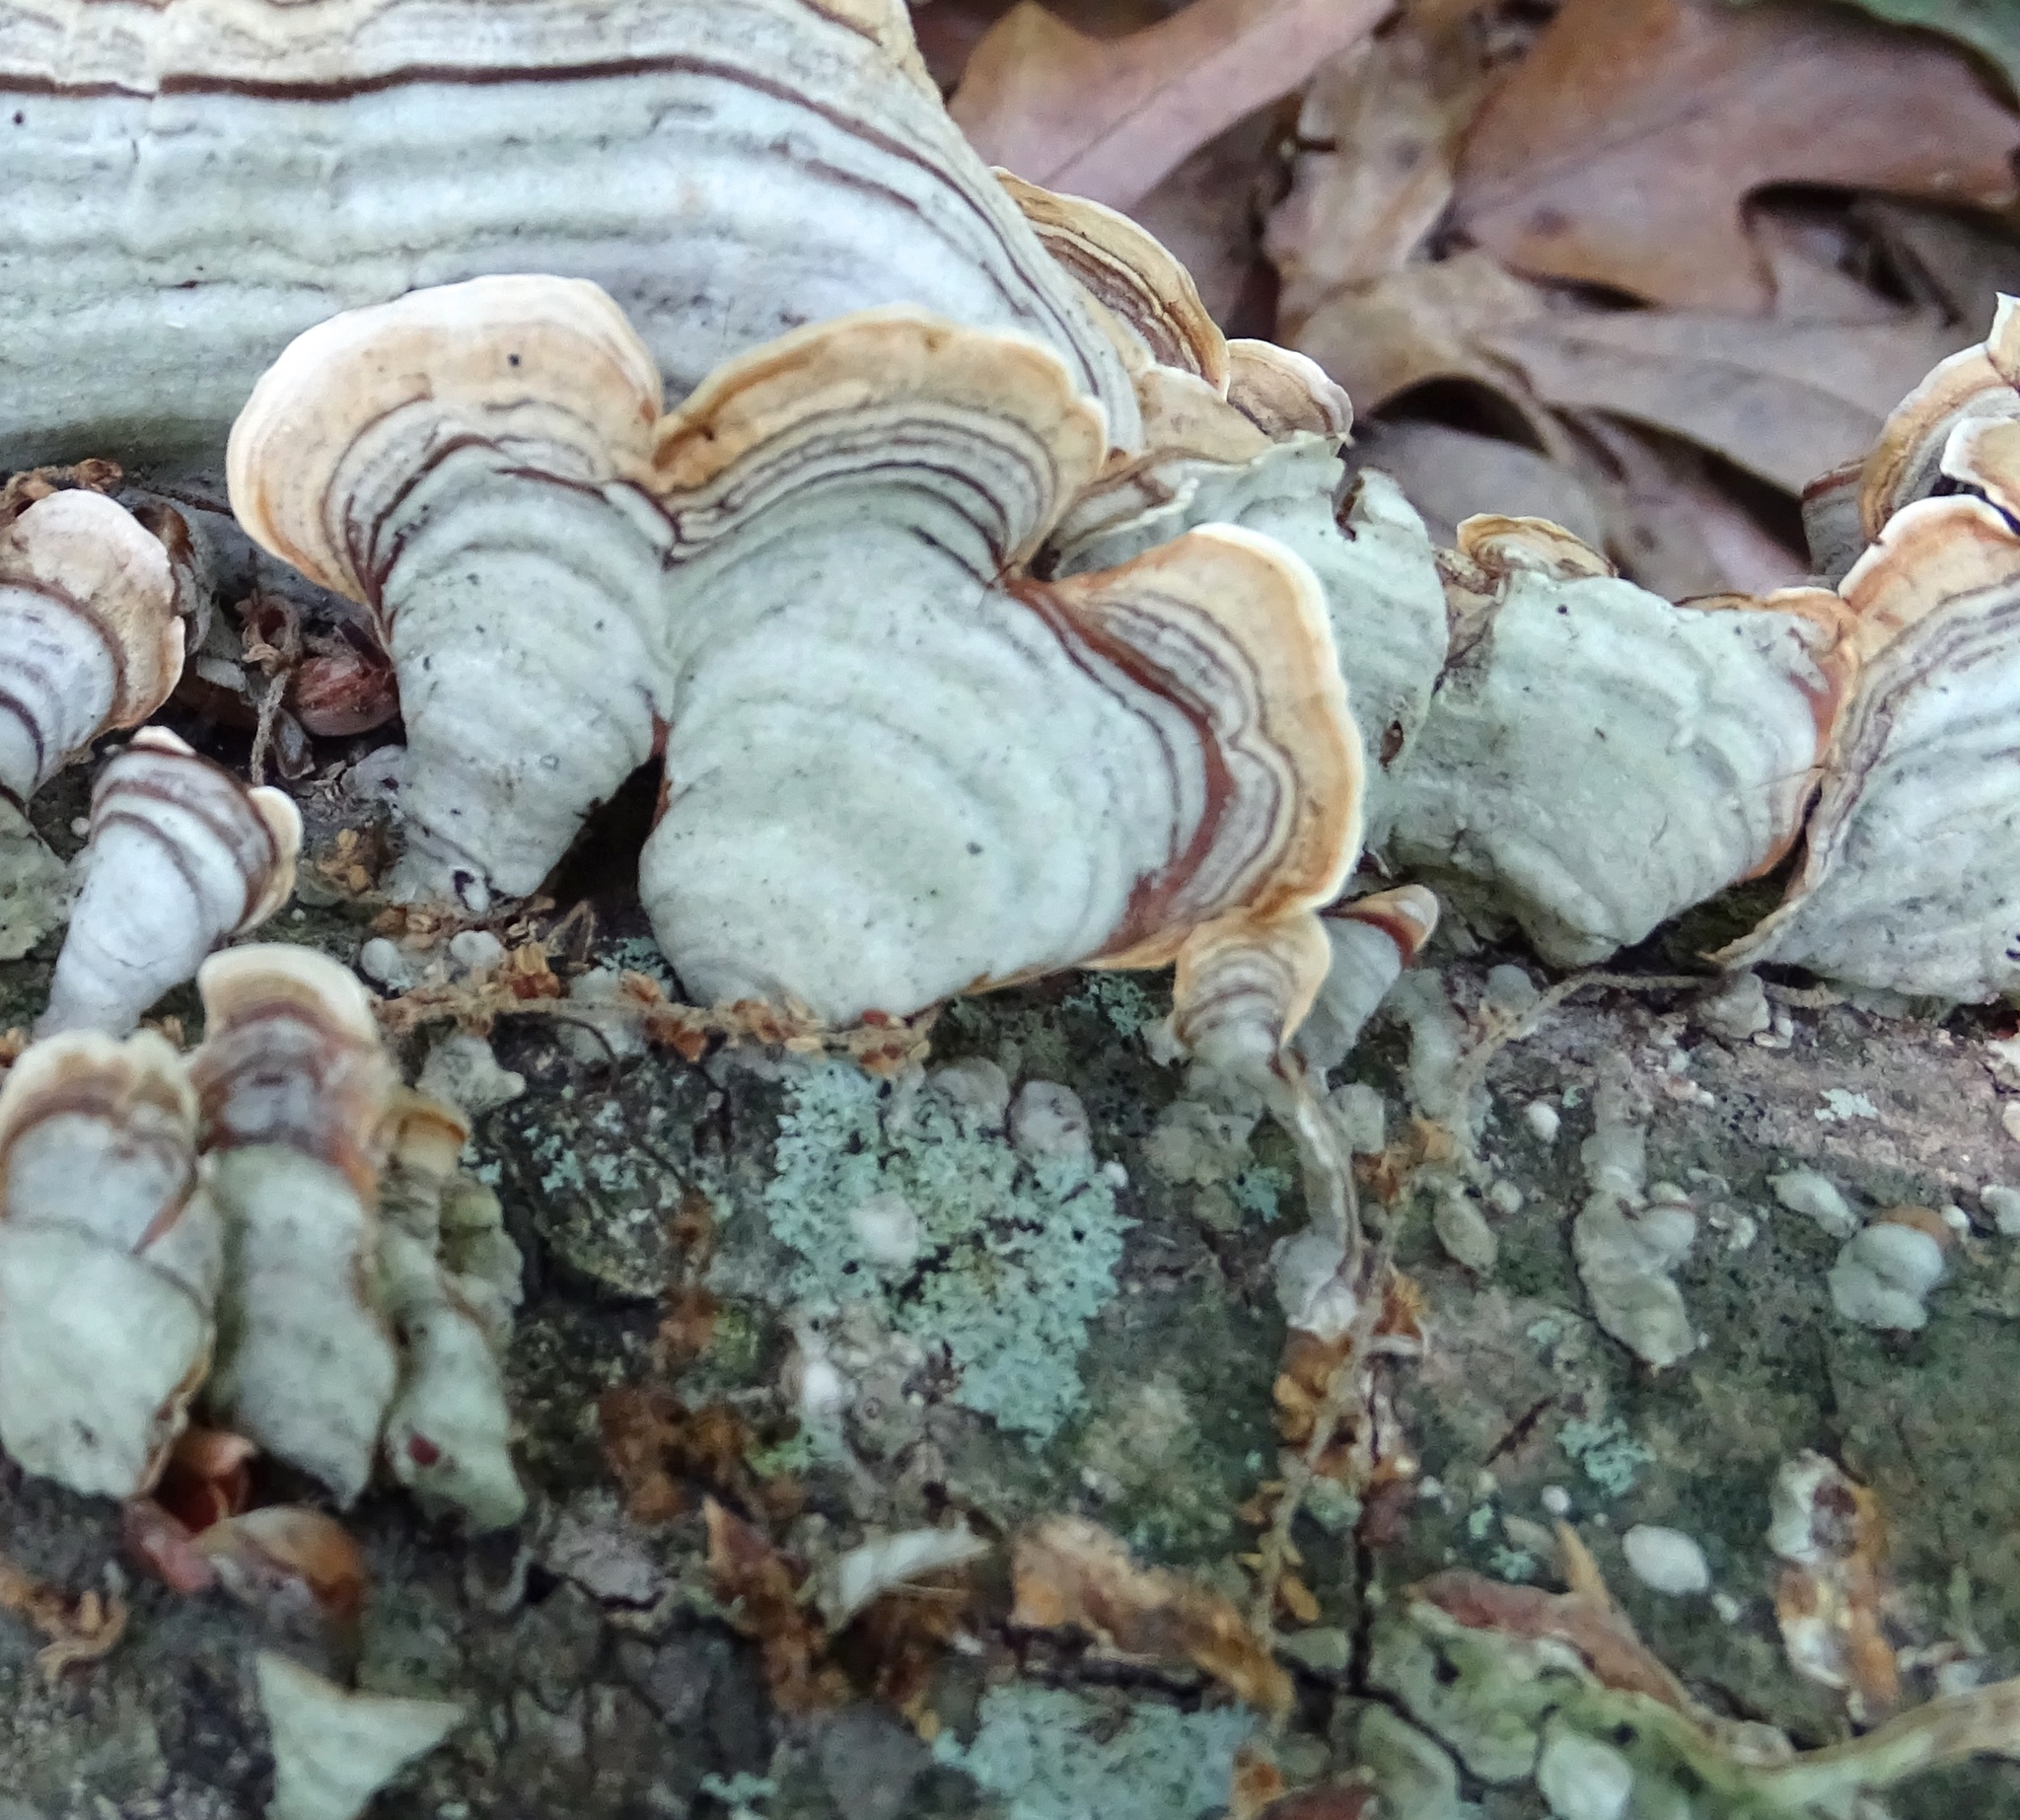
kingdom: Fungi
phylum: Basidiomycota
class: Agaricomycetes
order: Russulales
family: Stereaceae
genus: Stereum
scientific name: Stereum ostrea
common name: False turkeytail
